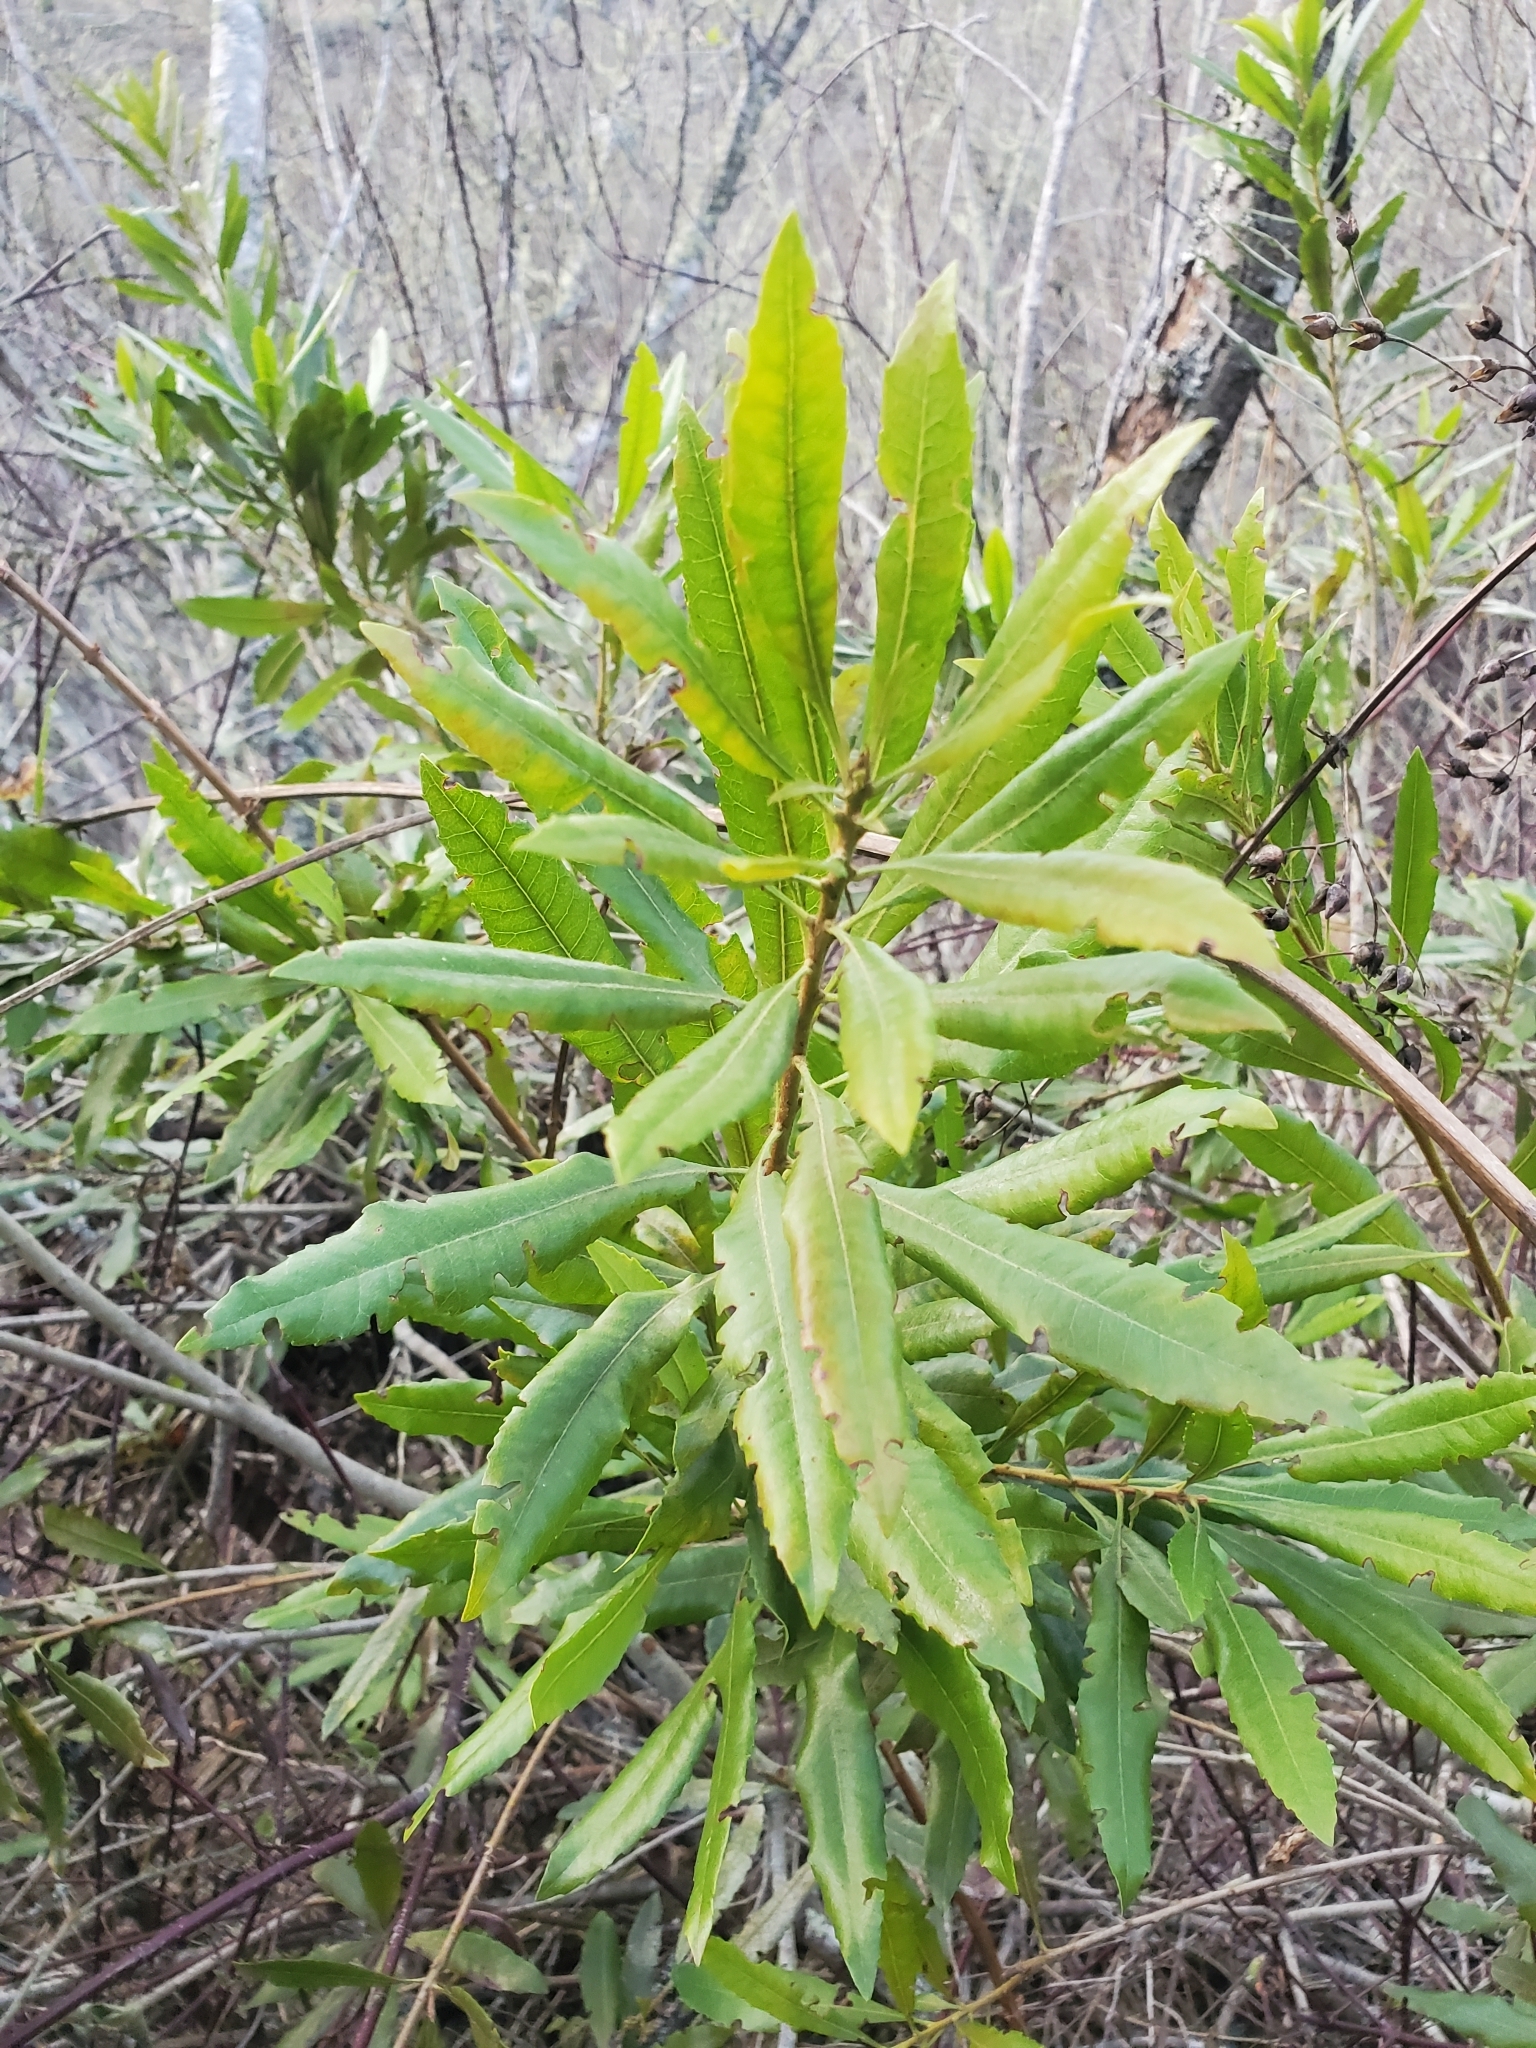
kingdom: Plantae
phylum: Tracheophyta
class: Magnoliopsida
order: Fagales
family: Myricaceae
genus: Morella
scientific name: Morella californica
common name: California wax-myrtle
